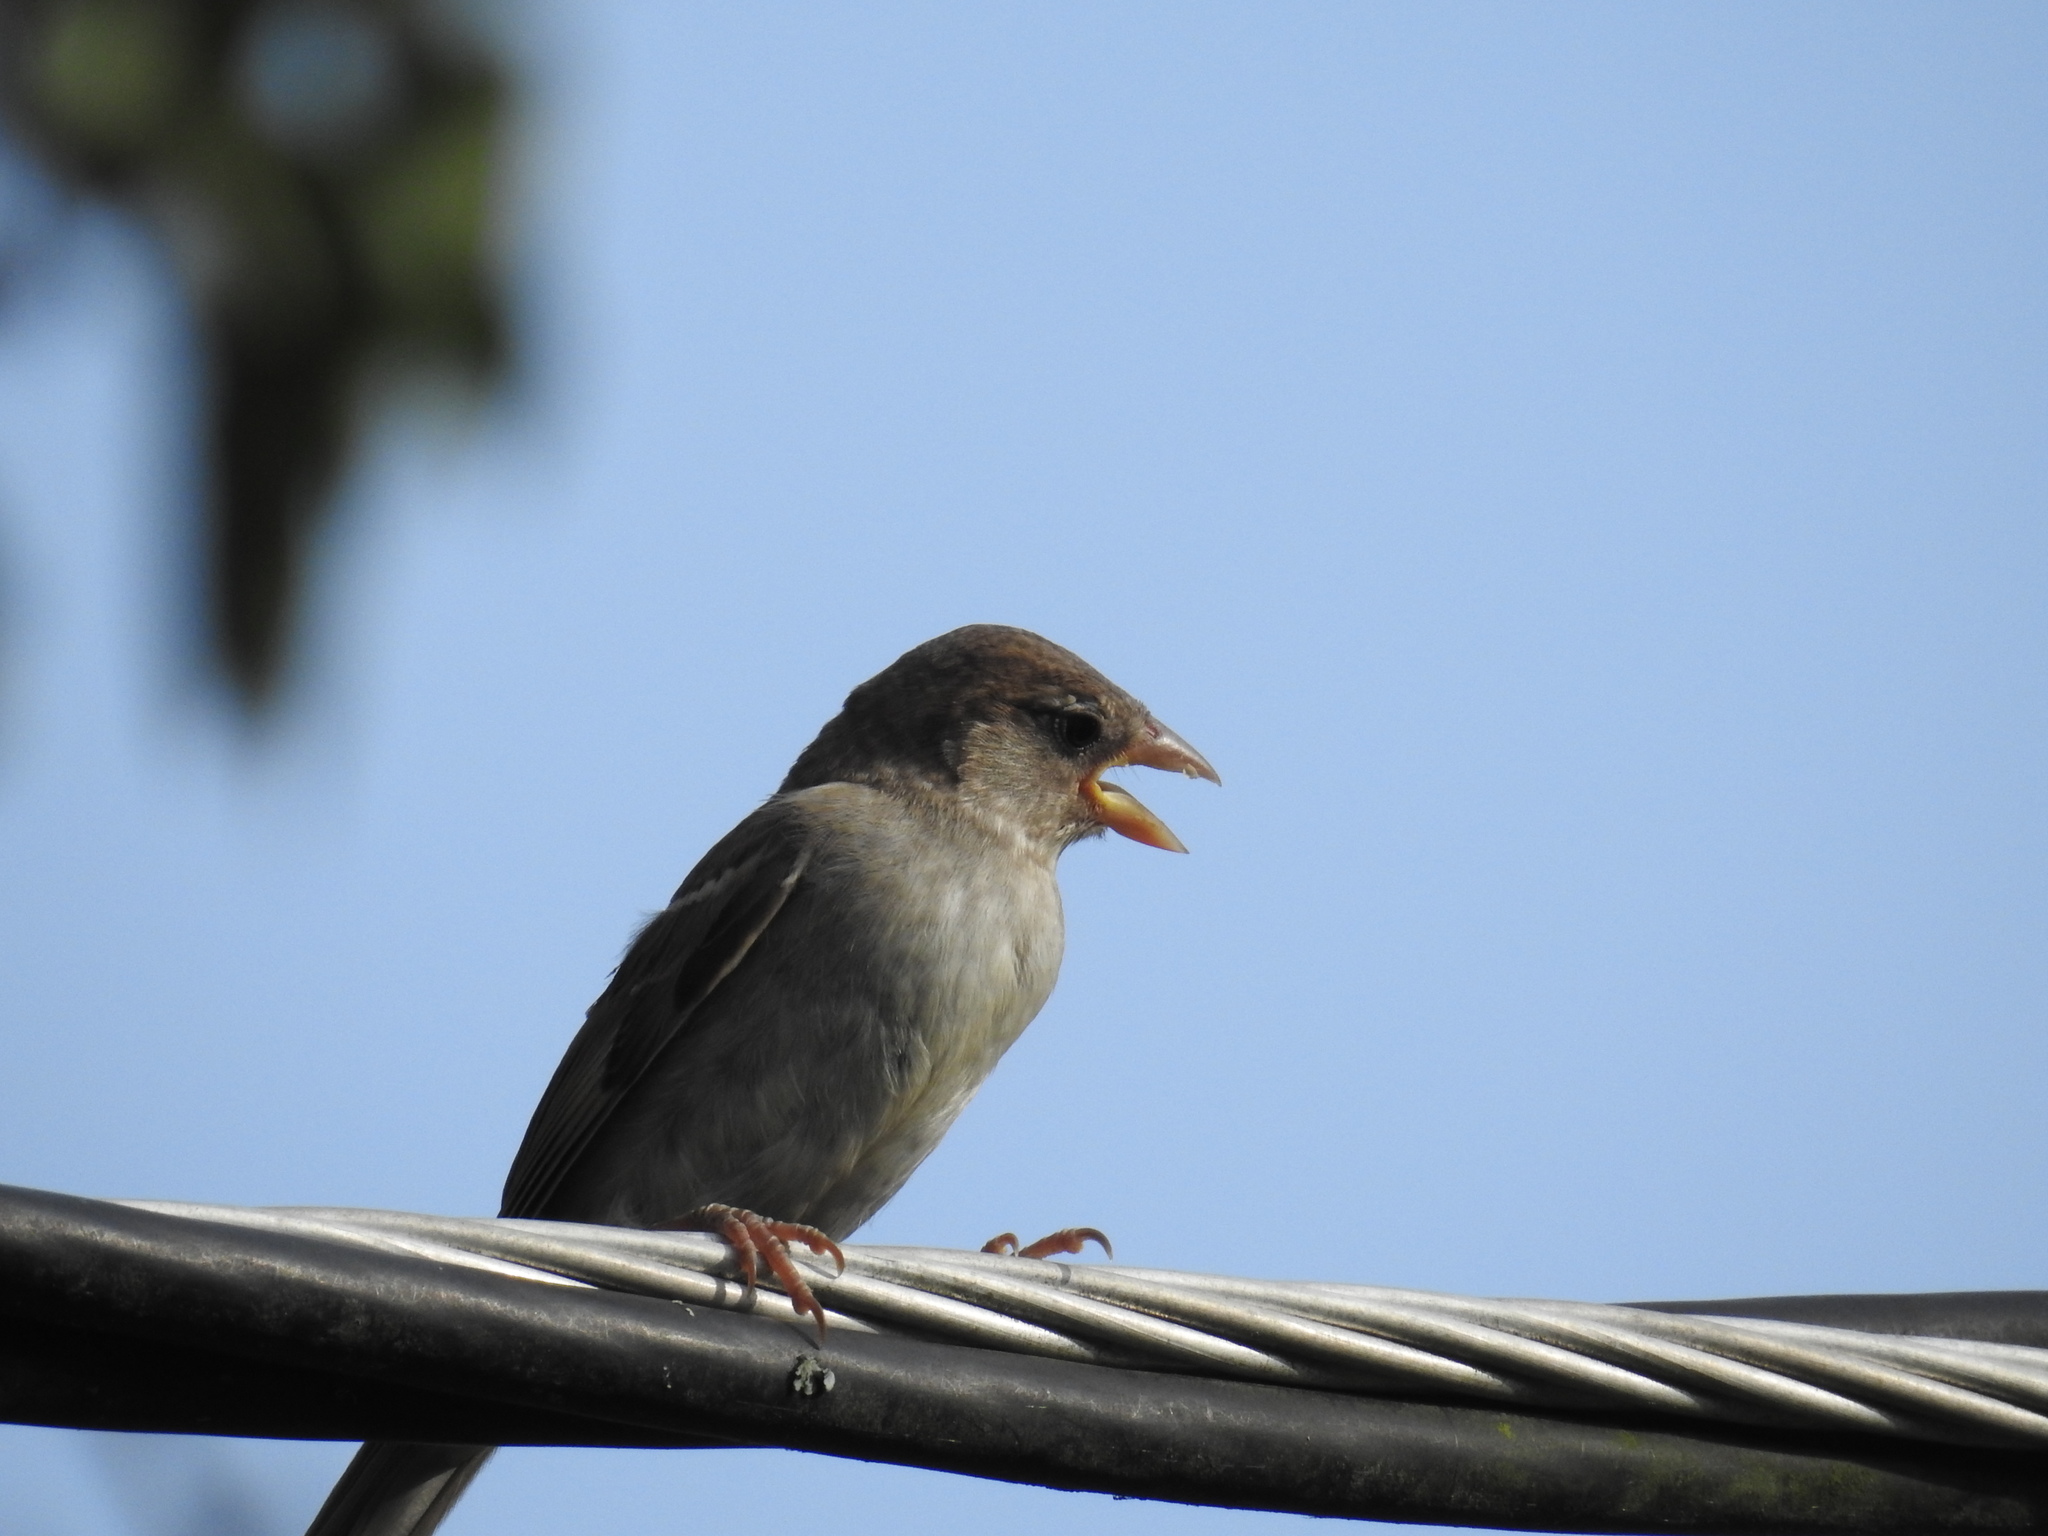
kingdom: Animalia
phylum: Chordata
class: Aves
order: Passeriformes
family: Passeridae
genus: Passer
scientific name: Passer domesticus
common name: House sparrow
